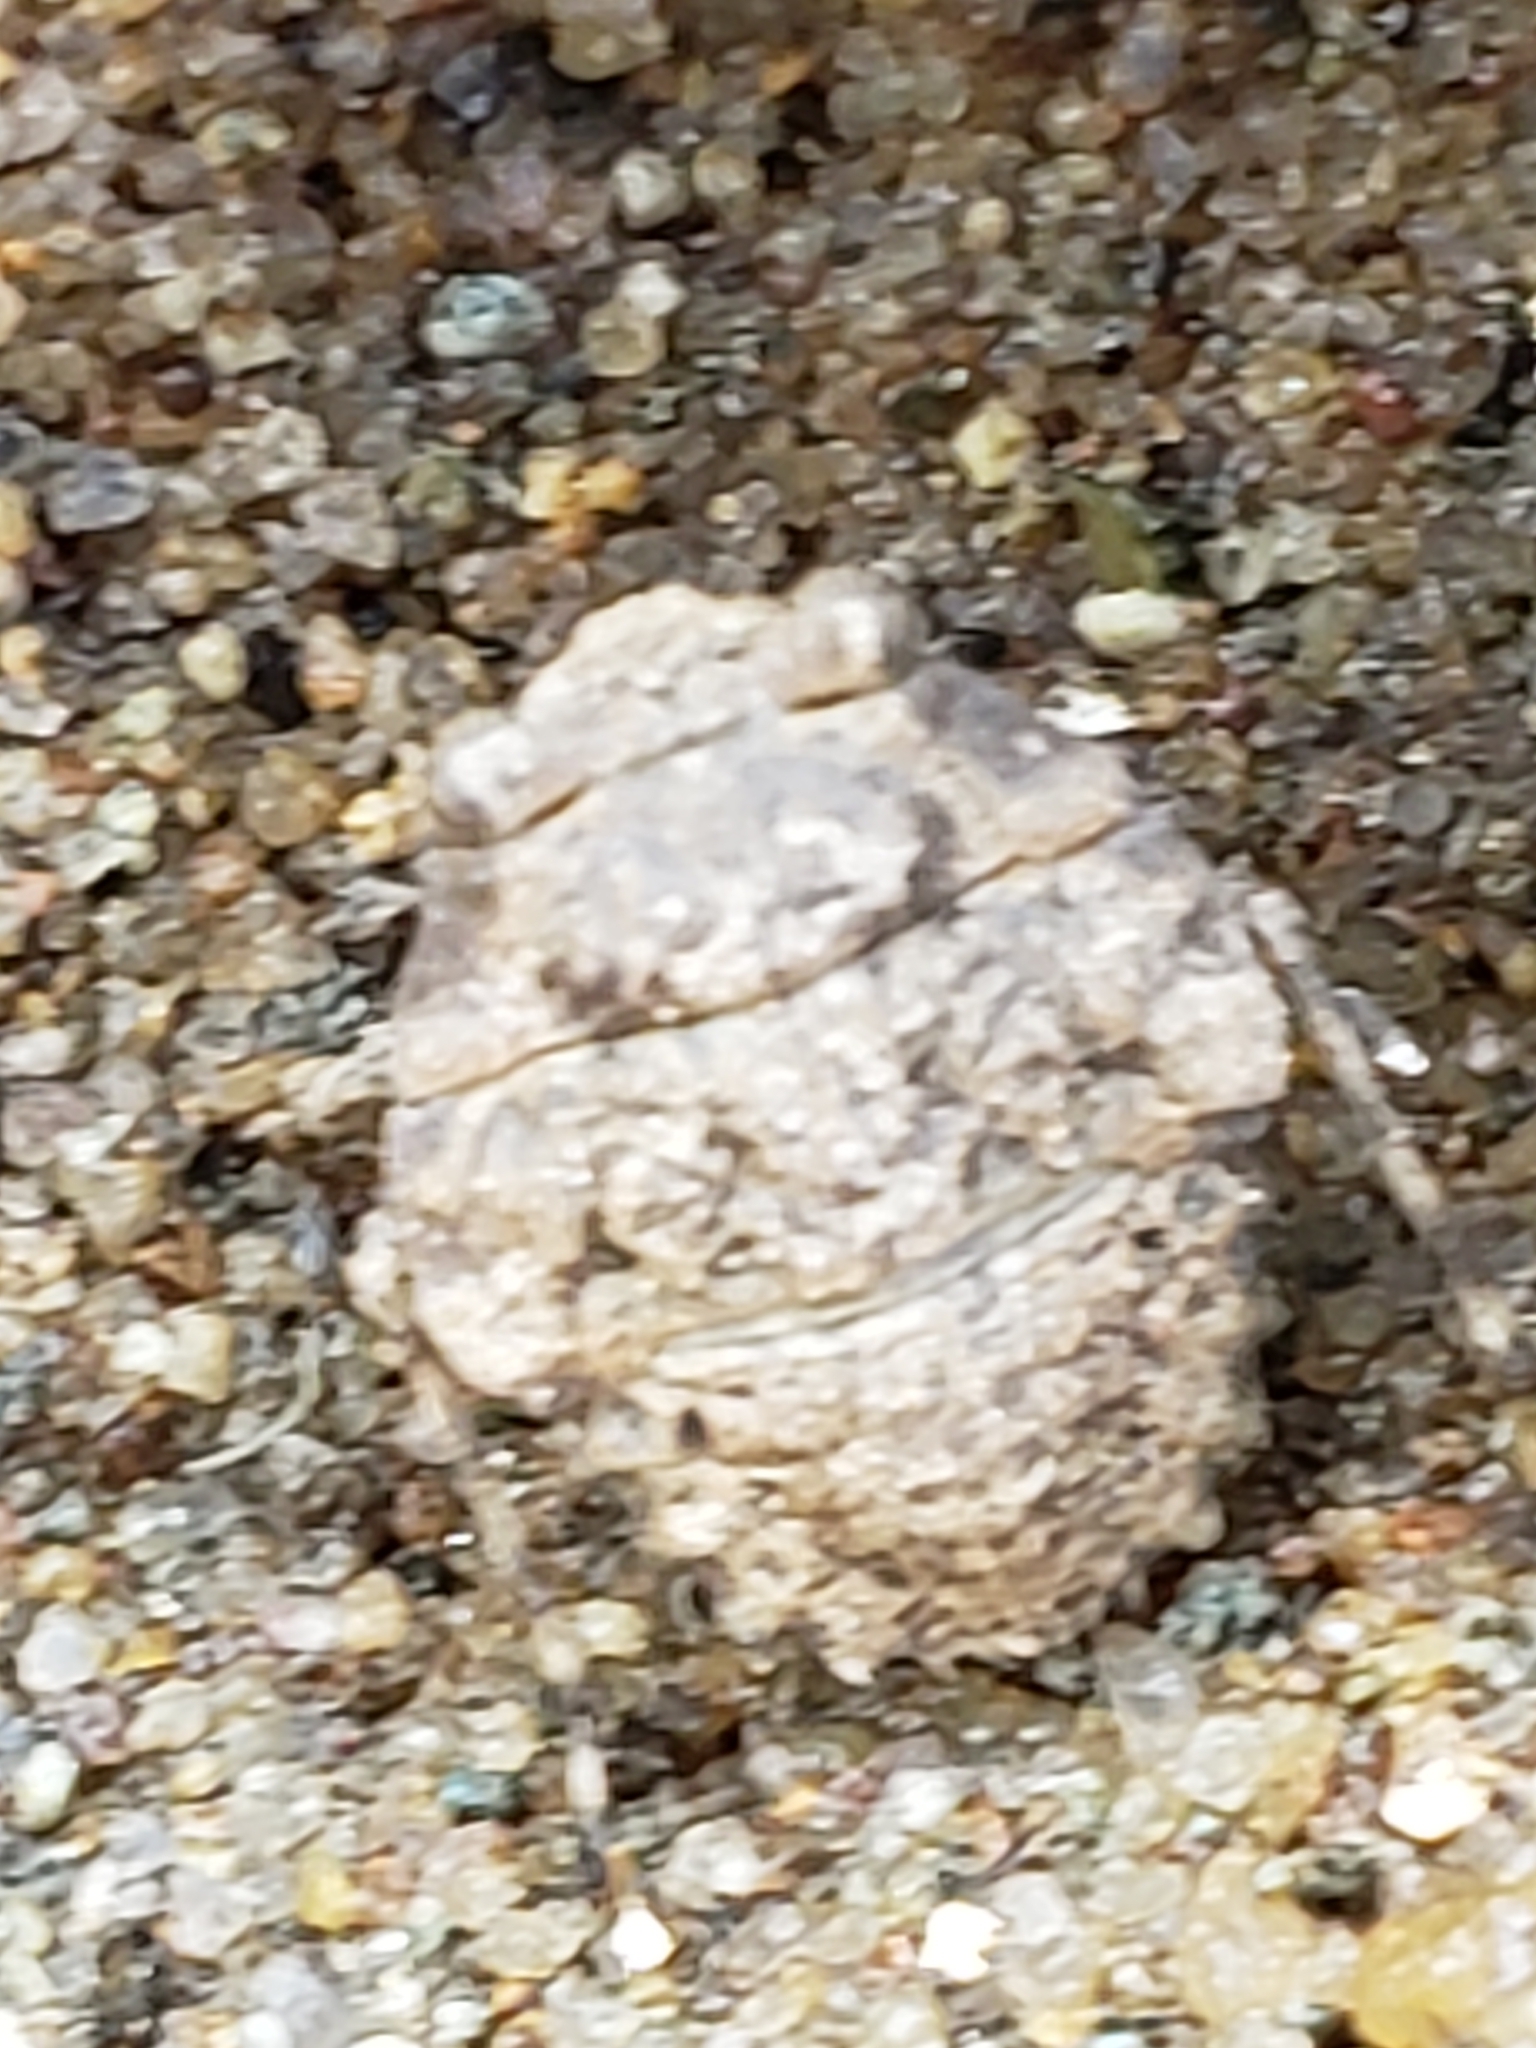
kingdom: Animalia
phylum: Arthropoda
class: Insecta
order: Hemiptera
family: Gelastocoridae
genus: Gelastocoris
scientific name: Gelastocoris oculatus
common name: Toad bug
